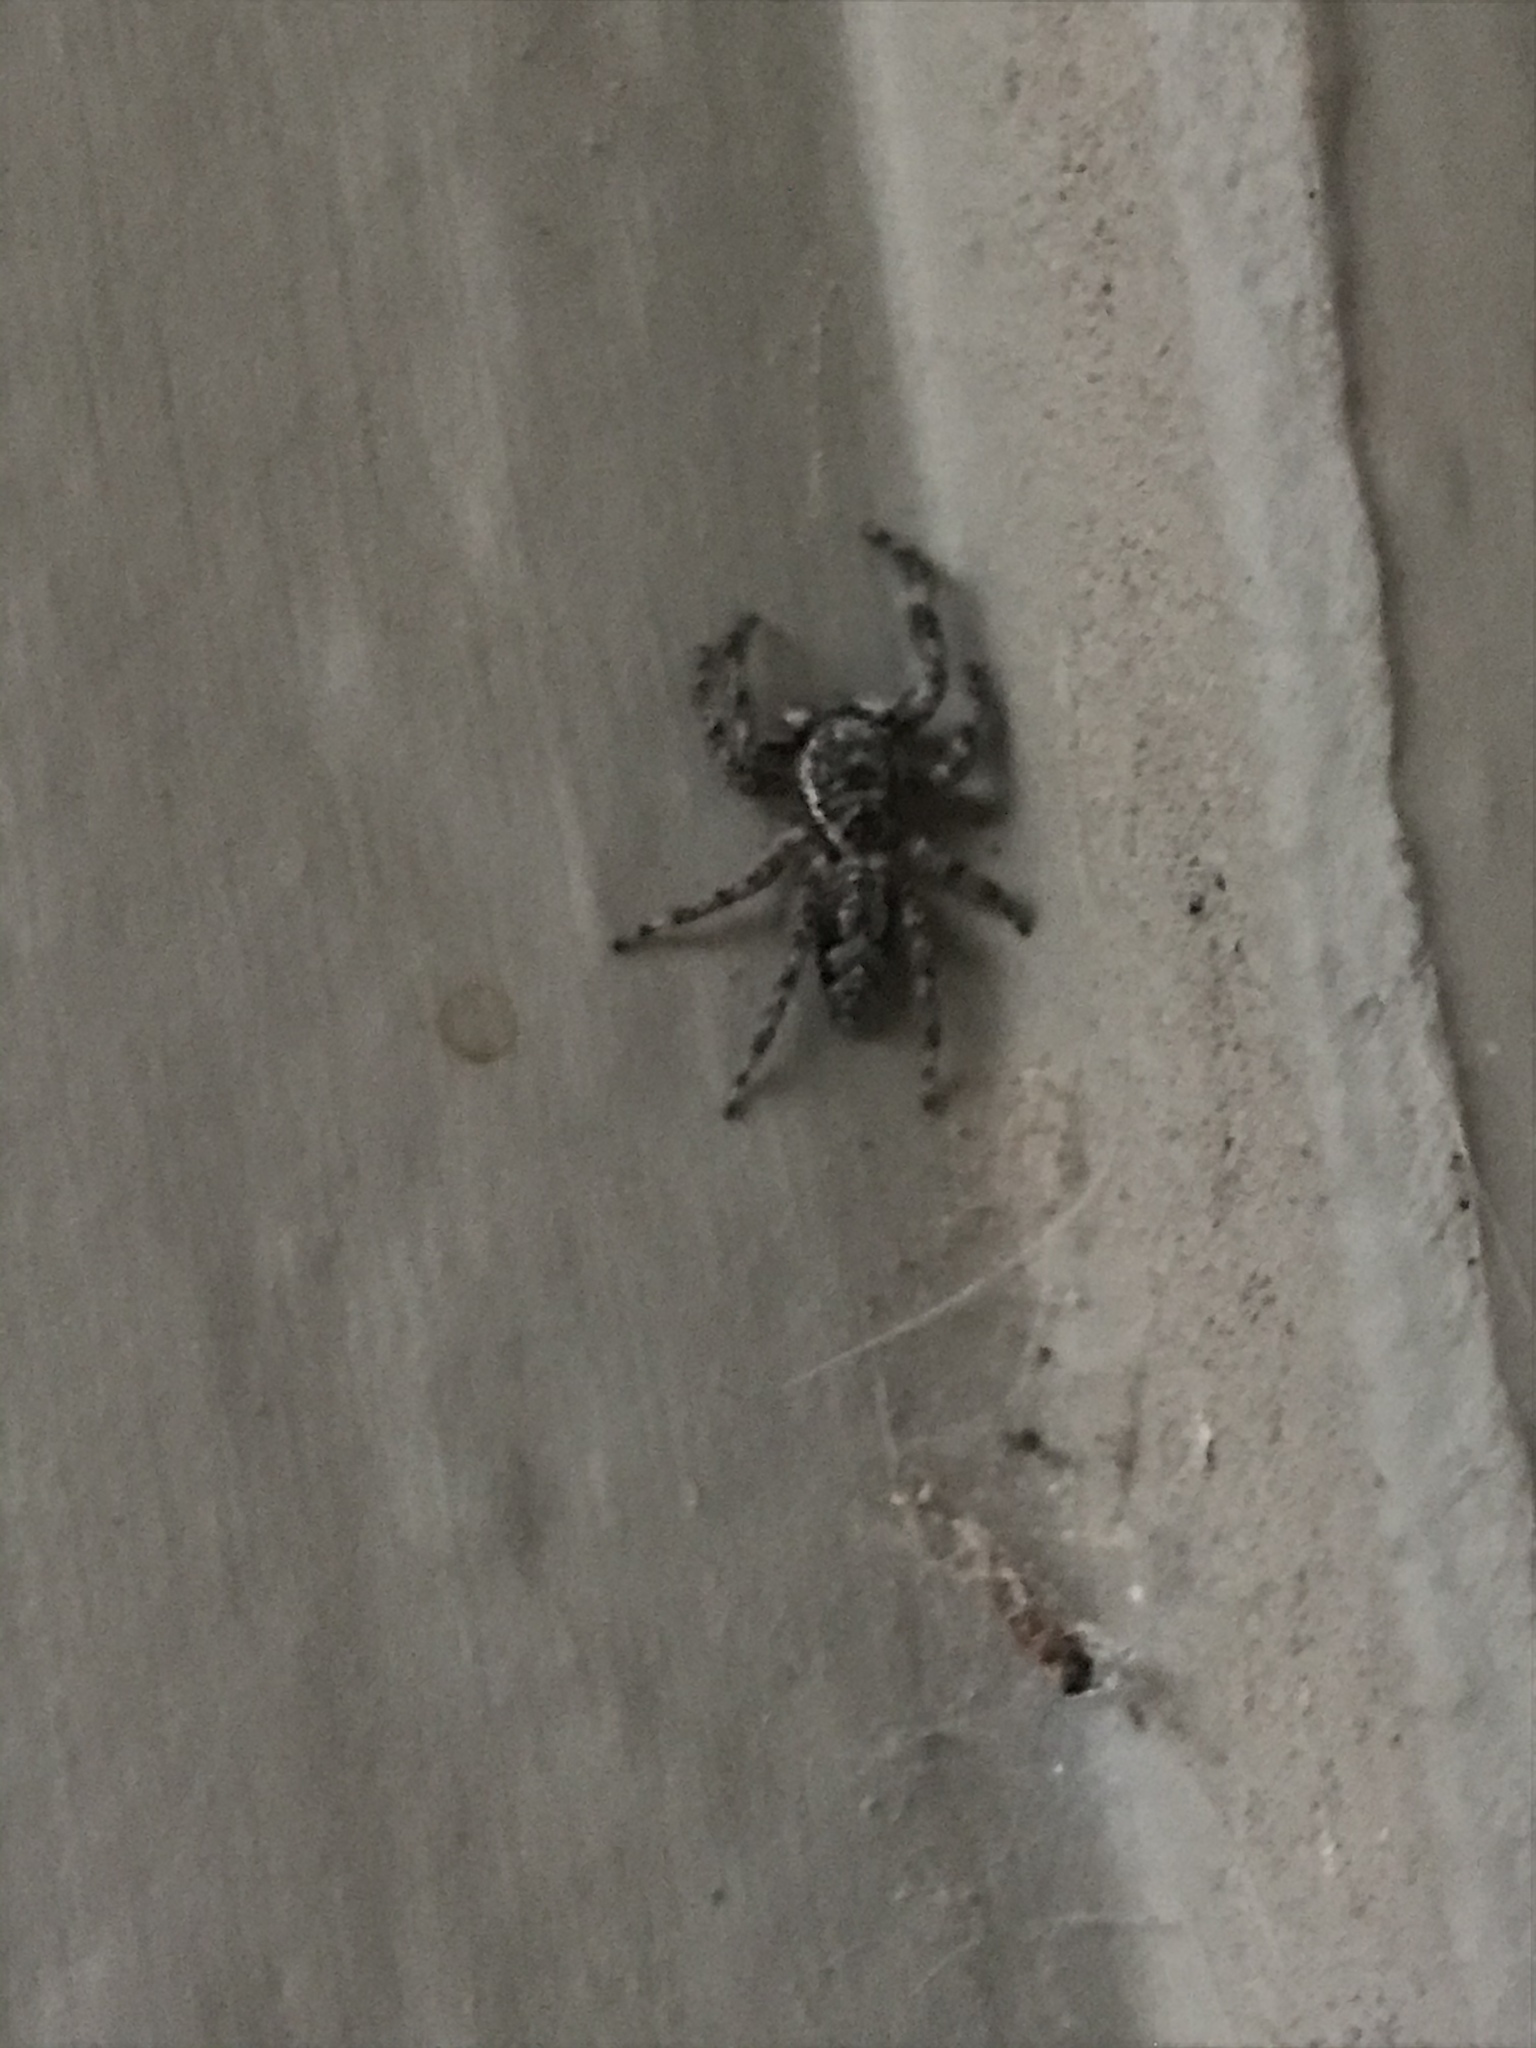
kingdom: Animalia
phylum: Arthropoda
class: Arachnida
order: Araneae
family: Salticidae
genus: Platycryptus
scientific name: Platycryptus undatus
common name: Tan jumping spider
